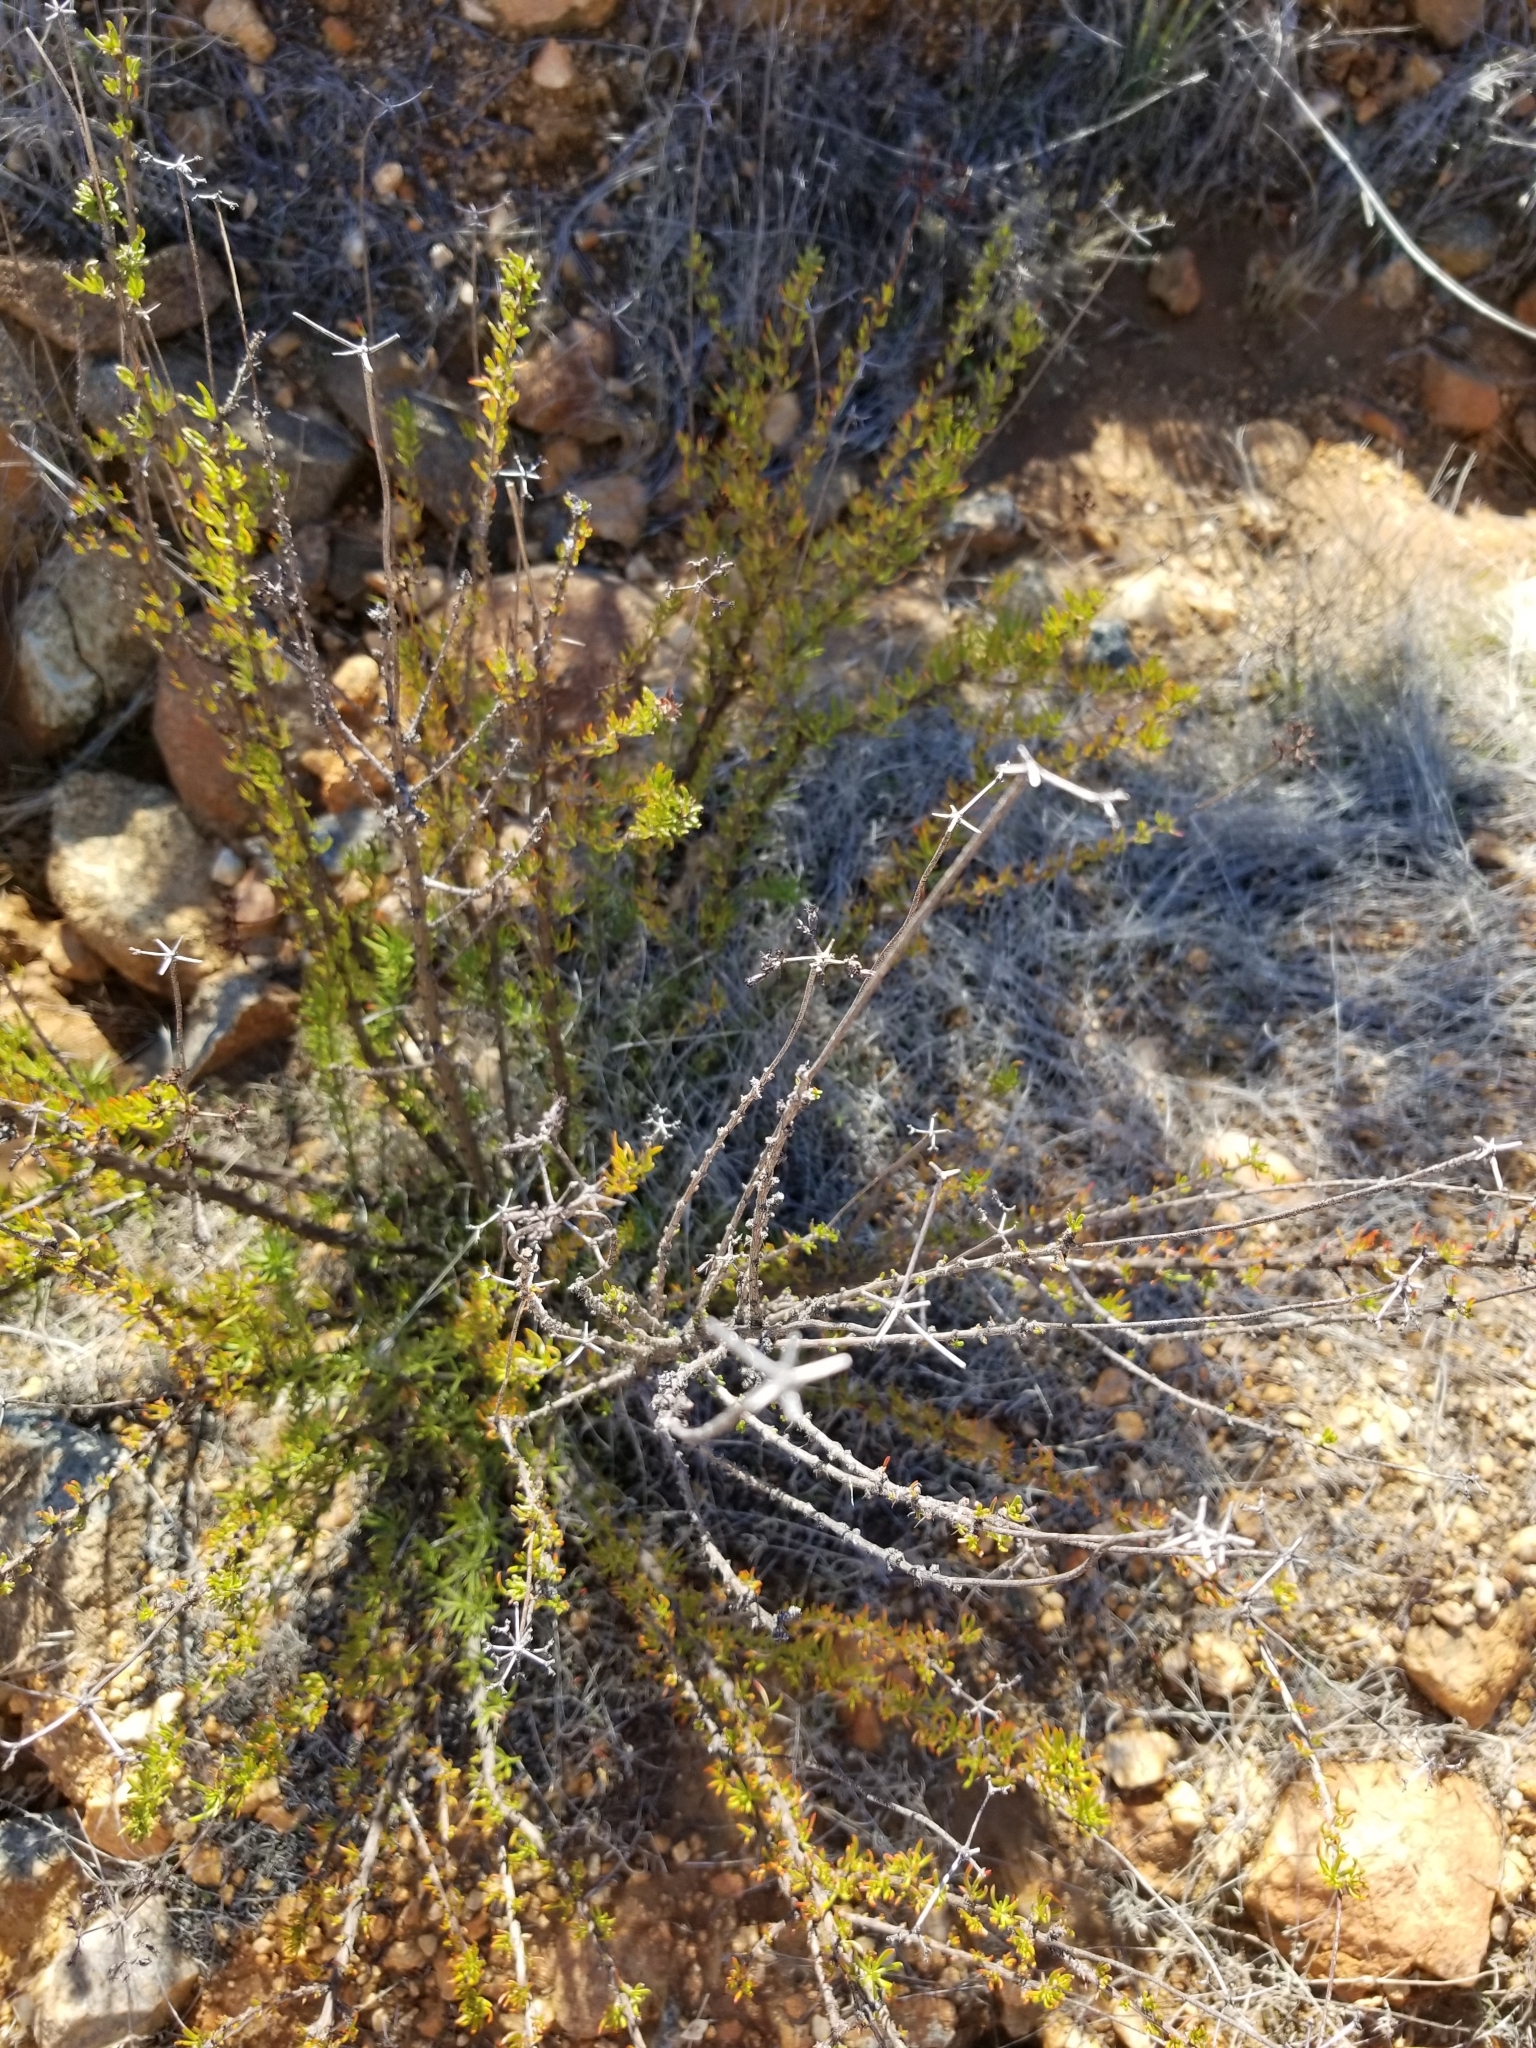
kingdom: Plantae
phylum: Tracheophyta
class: Magnoliopsida
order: Caryophyllales
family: Polygonaceae
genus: Eriogonum
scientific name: Eriogonum fasciculatum
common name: California wild buckwheat
